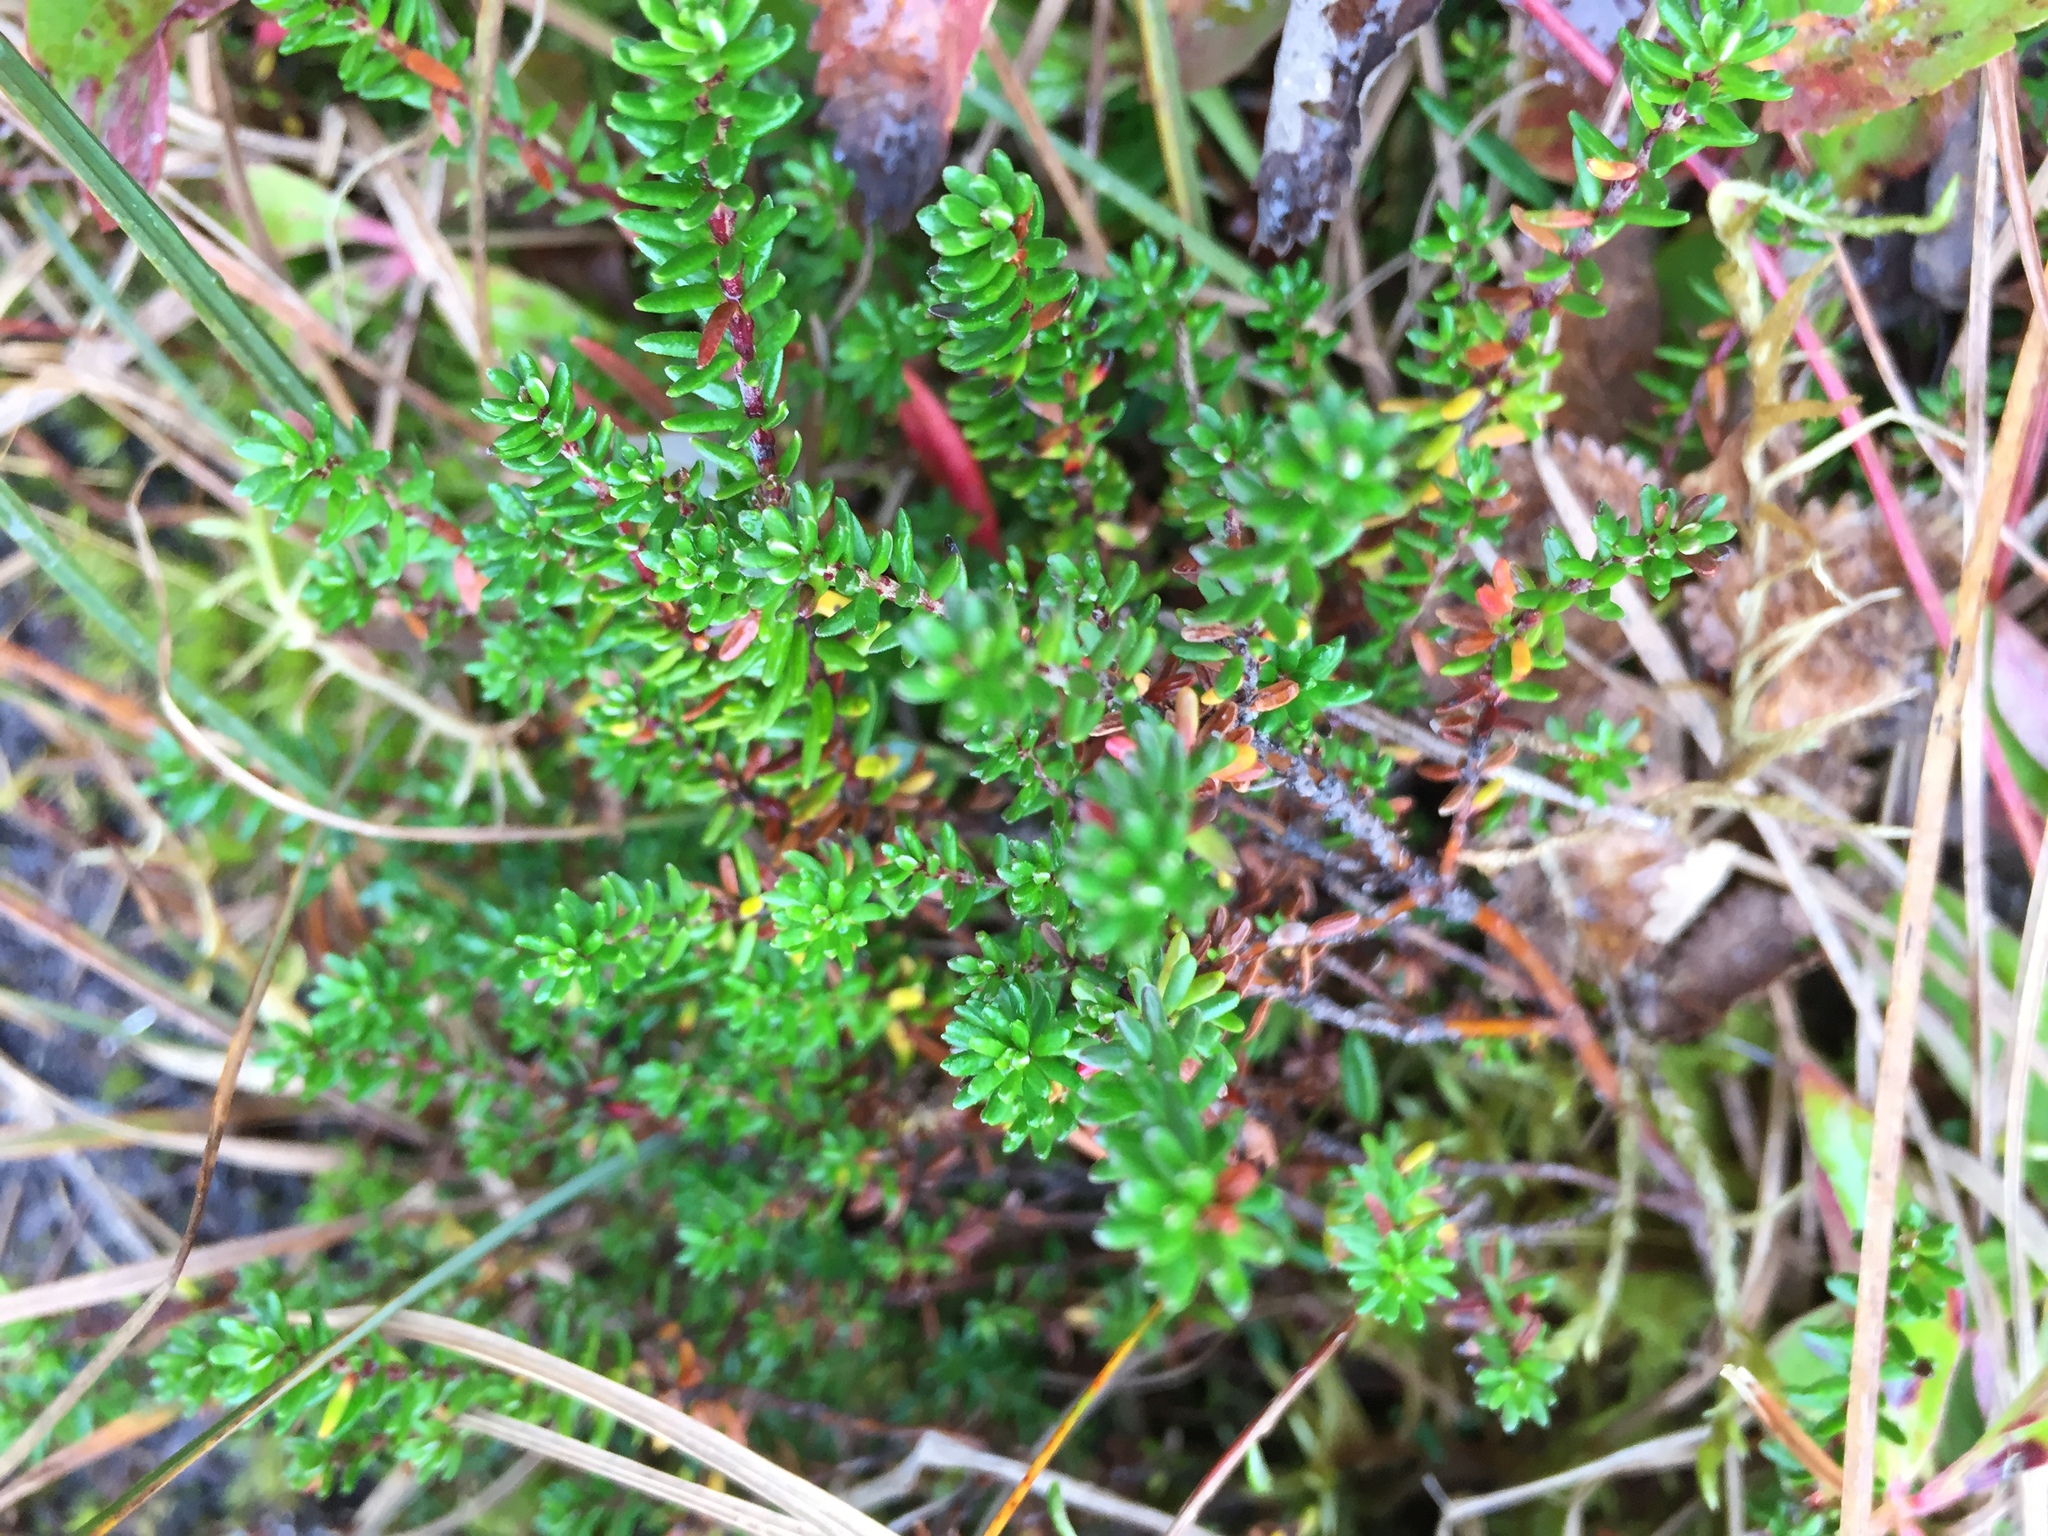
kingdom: Plantae
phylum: Tracheophyta
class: Magnoliopsida
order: Ericales
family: Ericaceae
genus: Empetrum
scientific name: Empetrum nigrum
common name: Black crowberry
